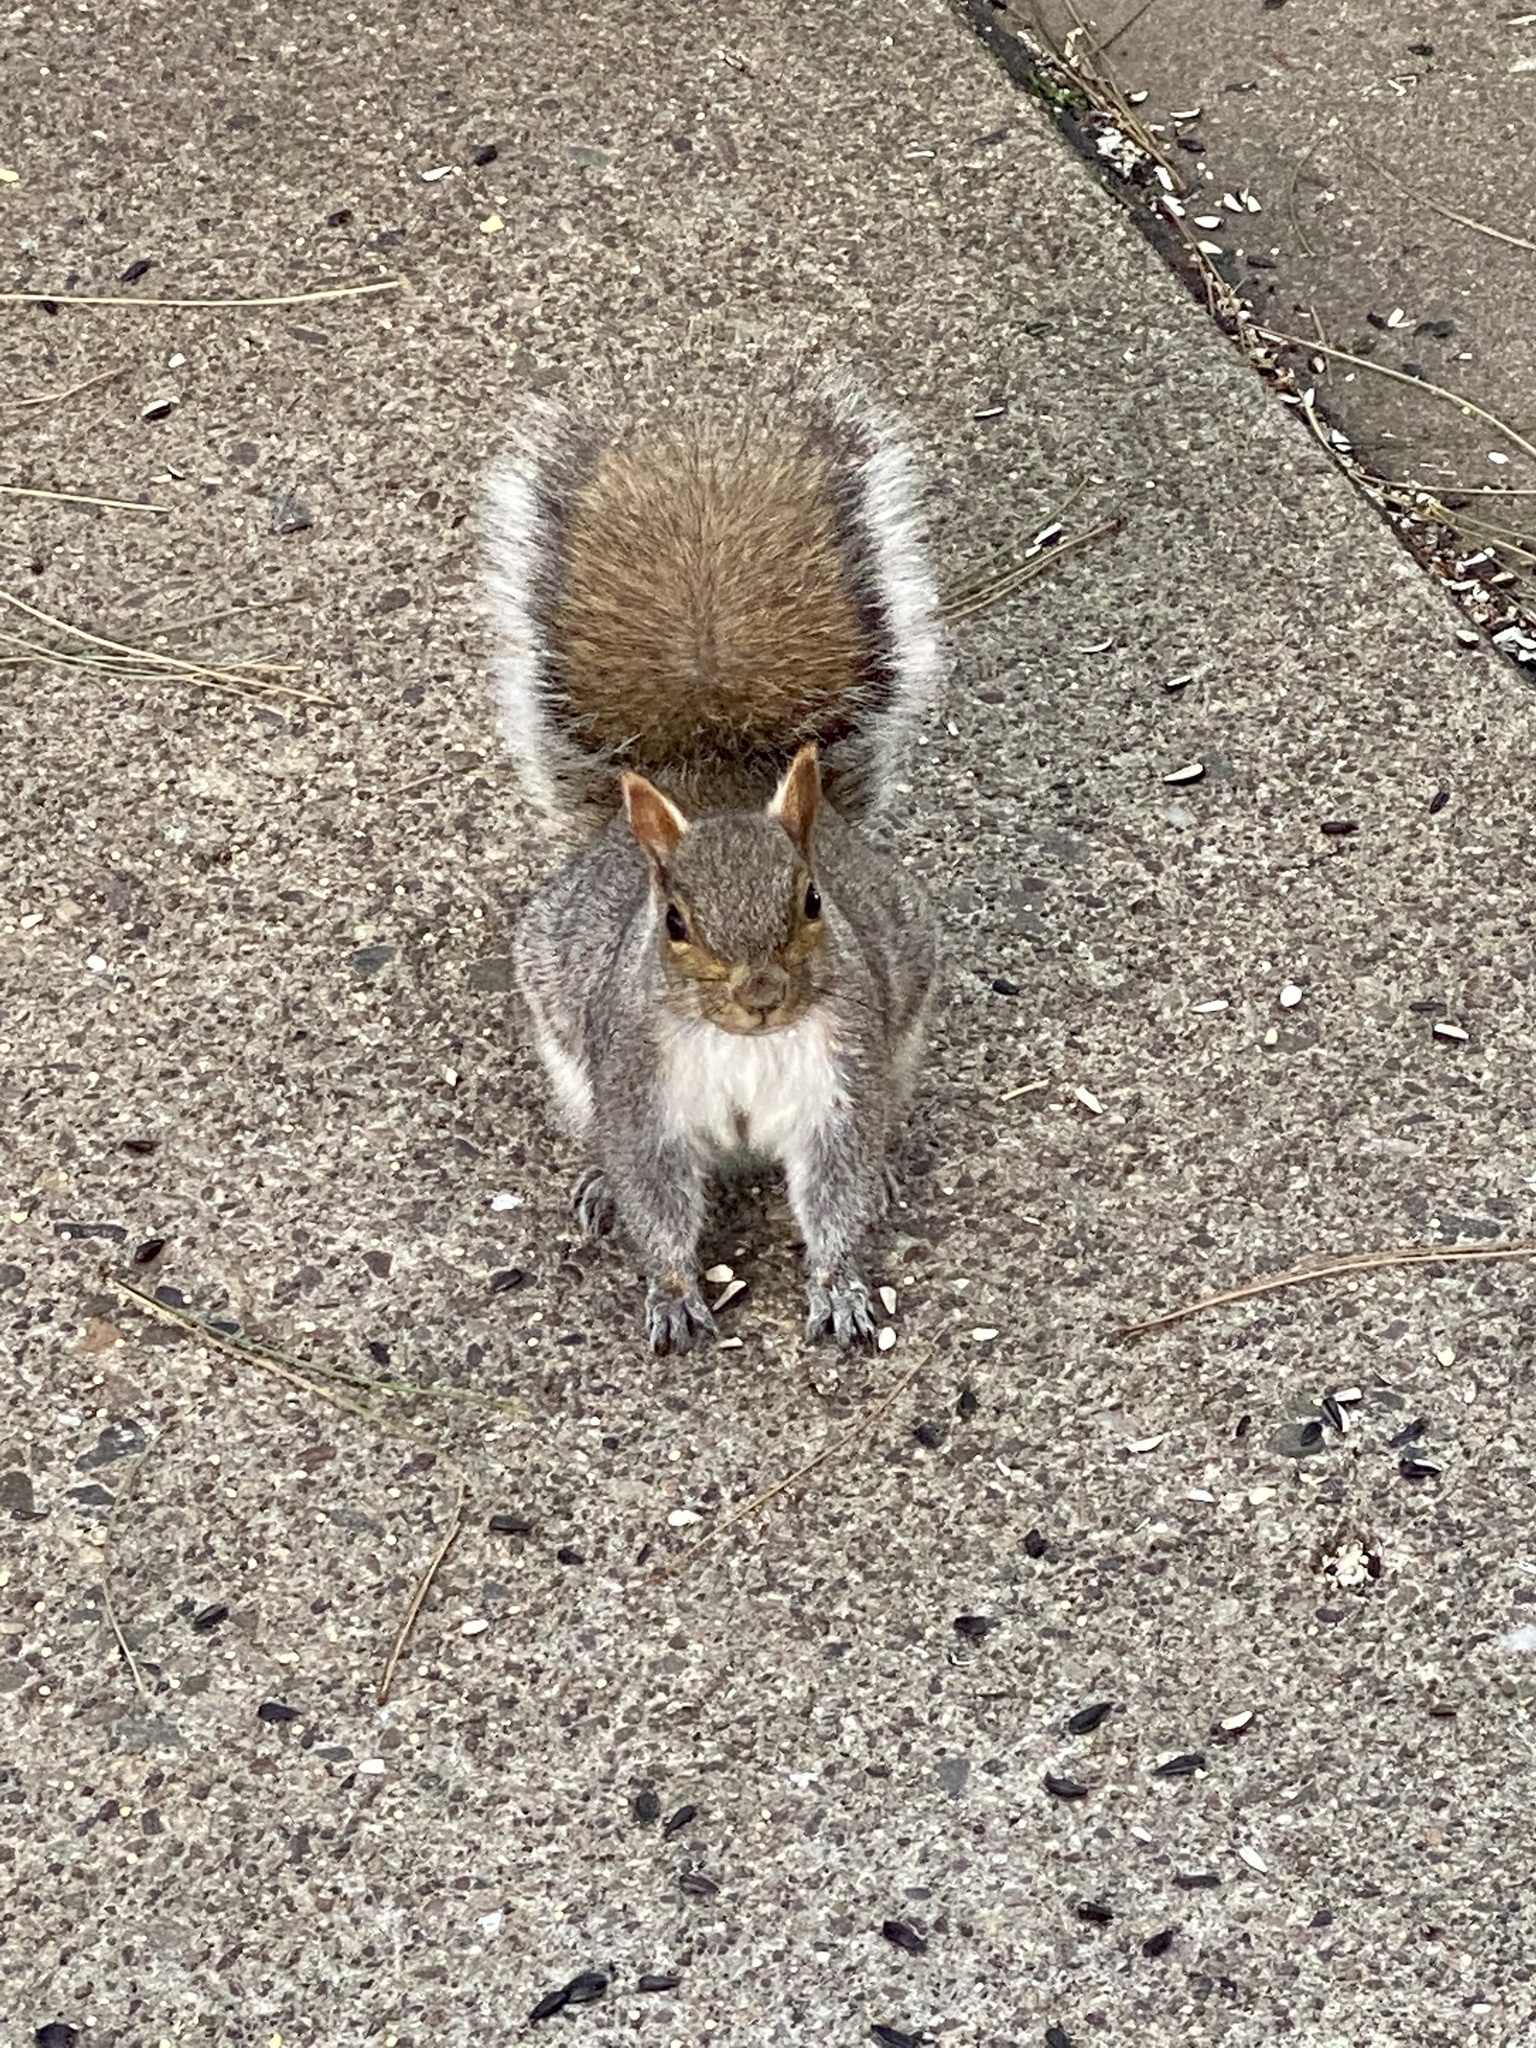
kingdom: Animalia
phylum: Chordata
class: Mammalia
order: Rodentia
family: Sciuridae
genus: Sciurus
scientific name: Sciurus carolinensis
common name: Eastern gray squirrel
